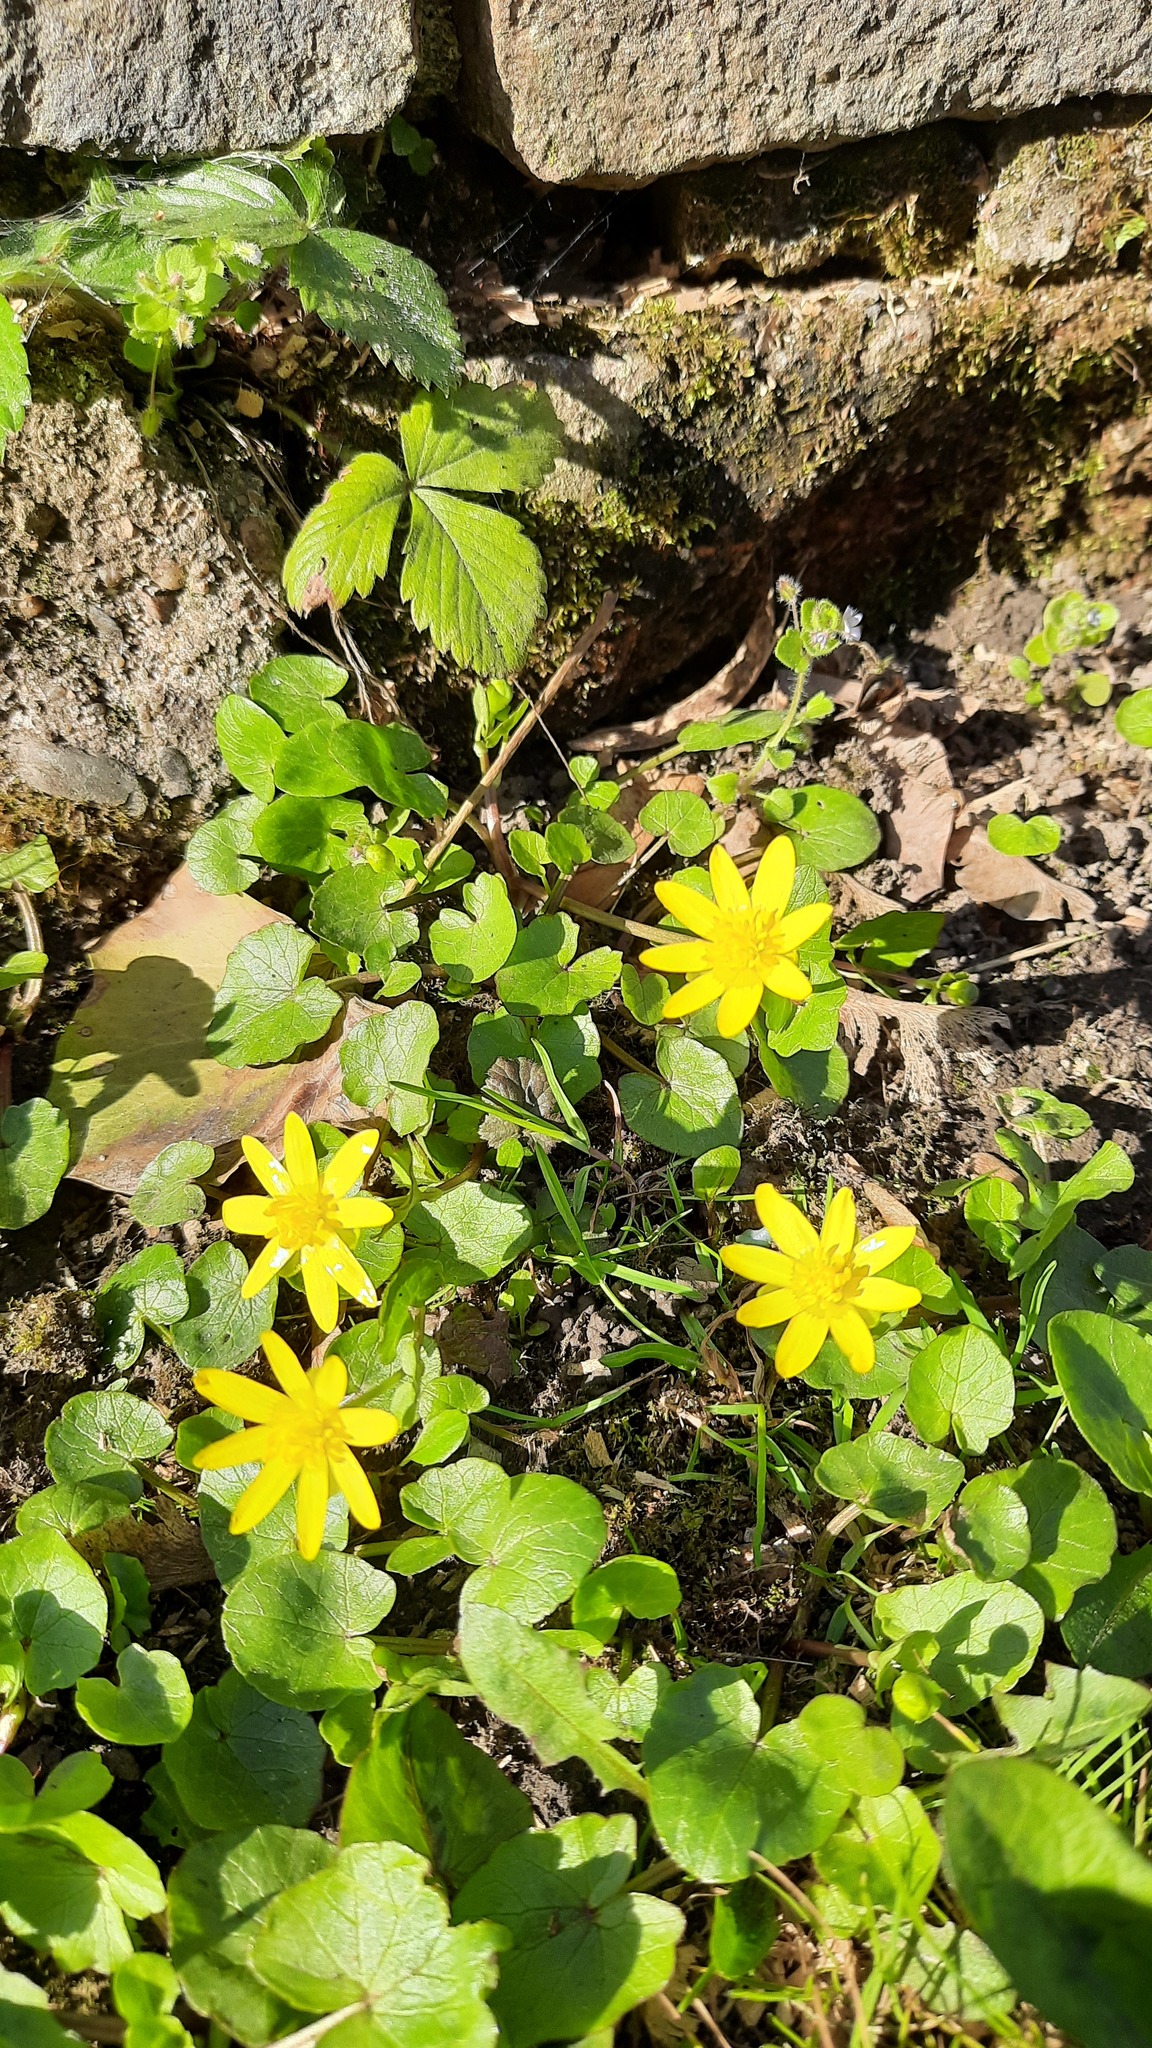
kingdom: Plantae
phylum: Tracheophyta
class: Magnoliopsida
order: Ranunculales
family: Ranunculaceae
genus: Ficaria
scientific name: Ficaria verna
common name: Lesser celandine
